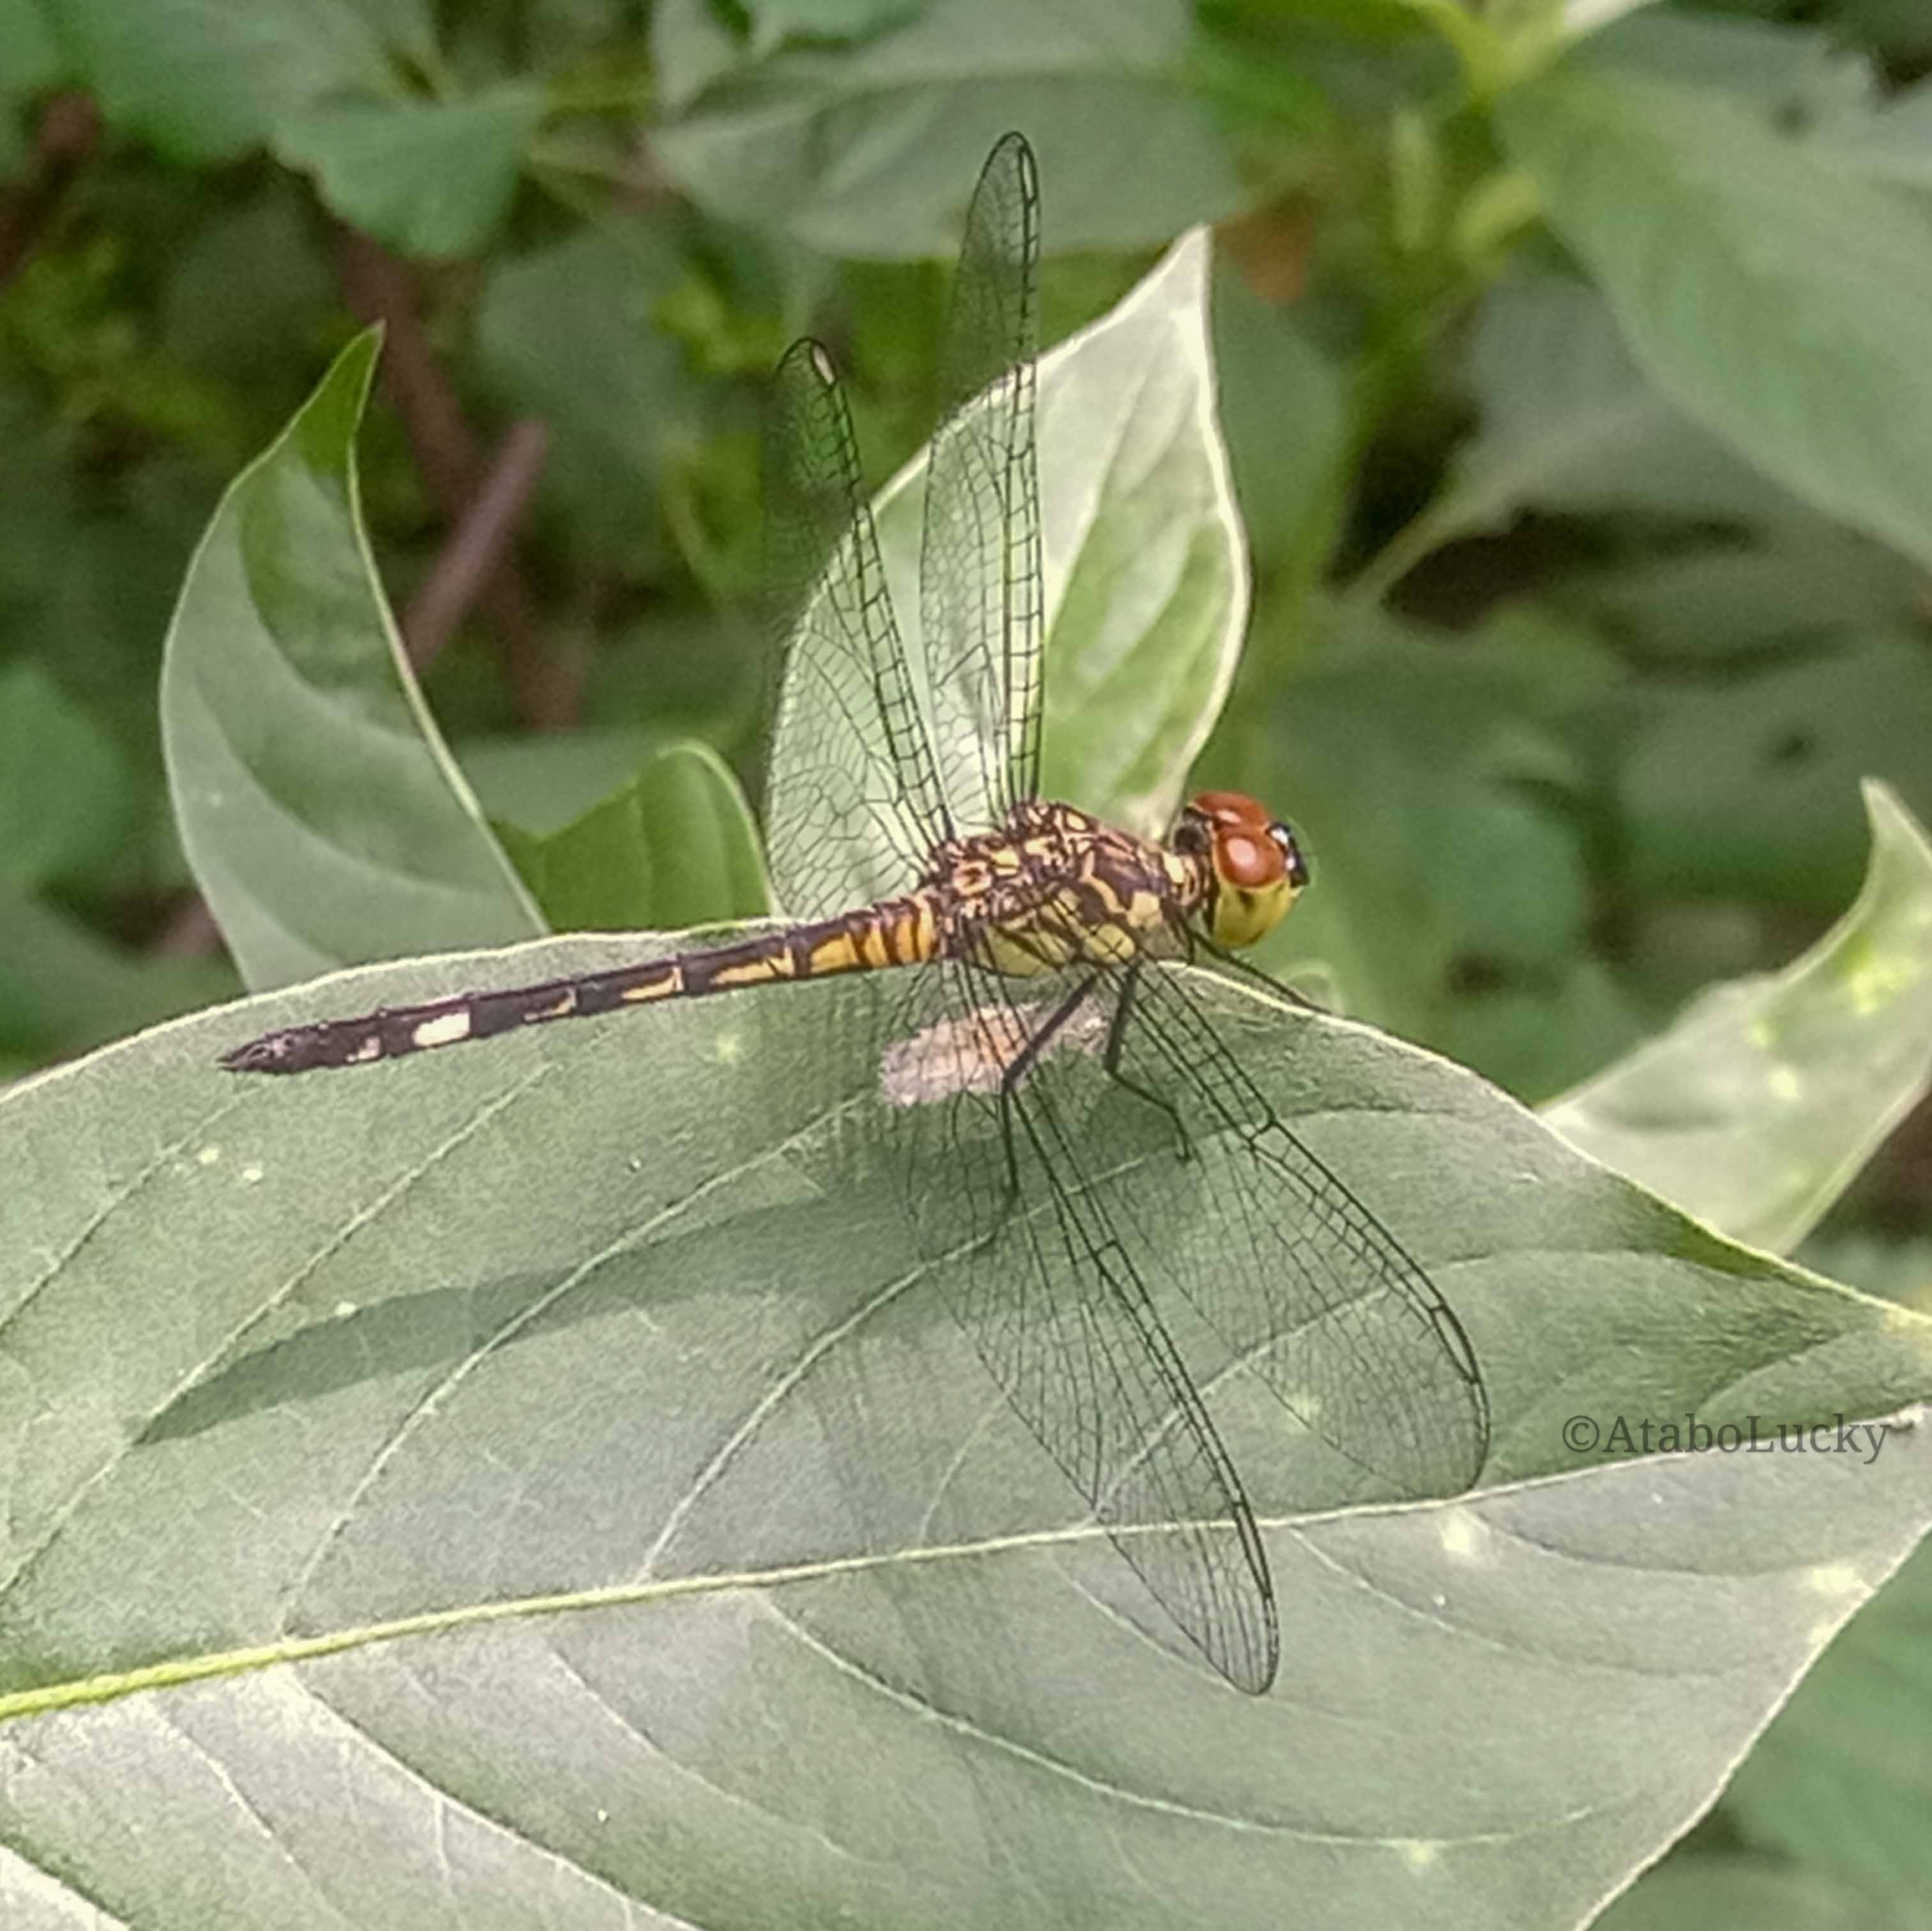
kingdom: Animalia
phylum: Arthropoda
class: Insecta
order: Odonata
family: Libellulidae
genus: Chalcostephia
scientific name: Chalcostephia flavifrons
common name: Inspector
